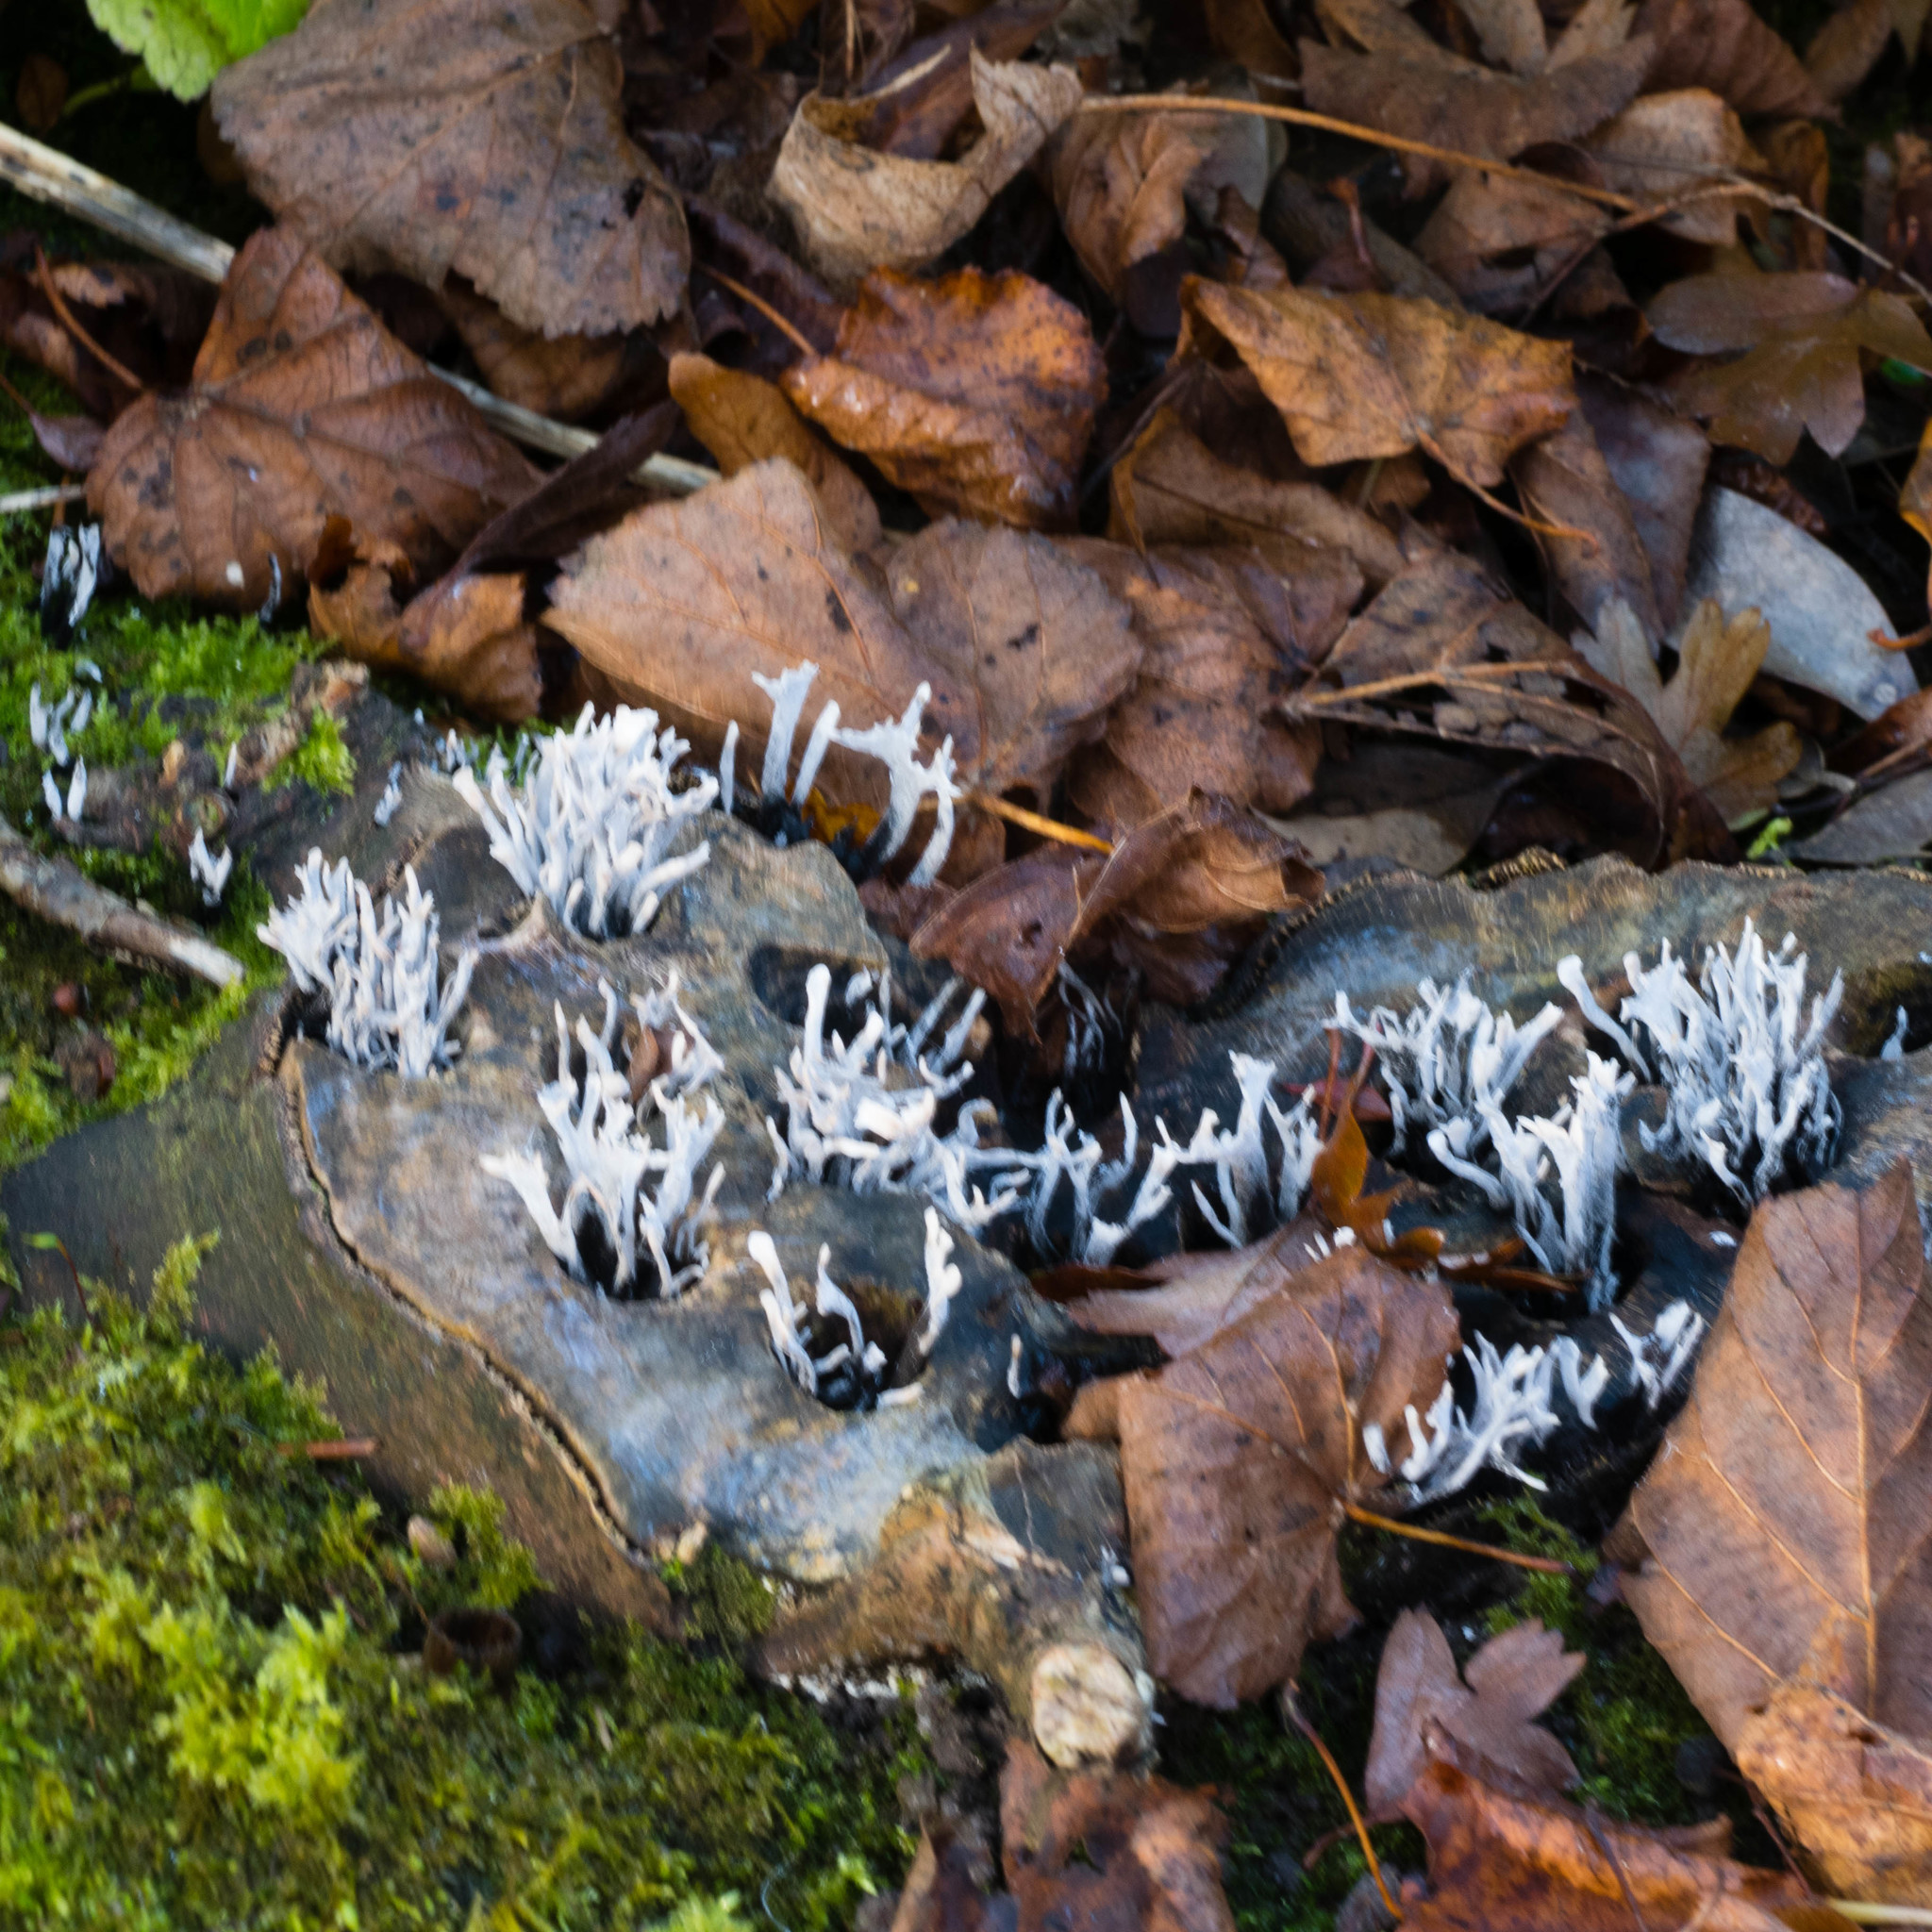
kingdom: Fungi
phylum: Ascomycota
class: Sordariomycetes
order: Xylariales
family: Xylariaceae
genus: Xylaria
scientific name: Xylaria hypoxylon
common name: Candle-snuff fungus
